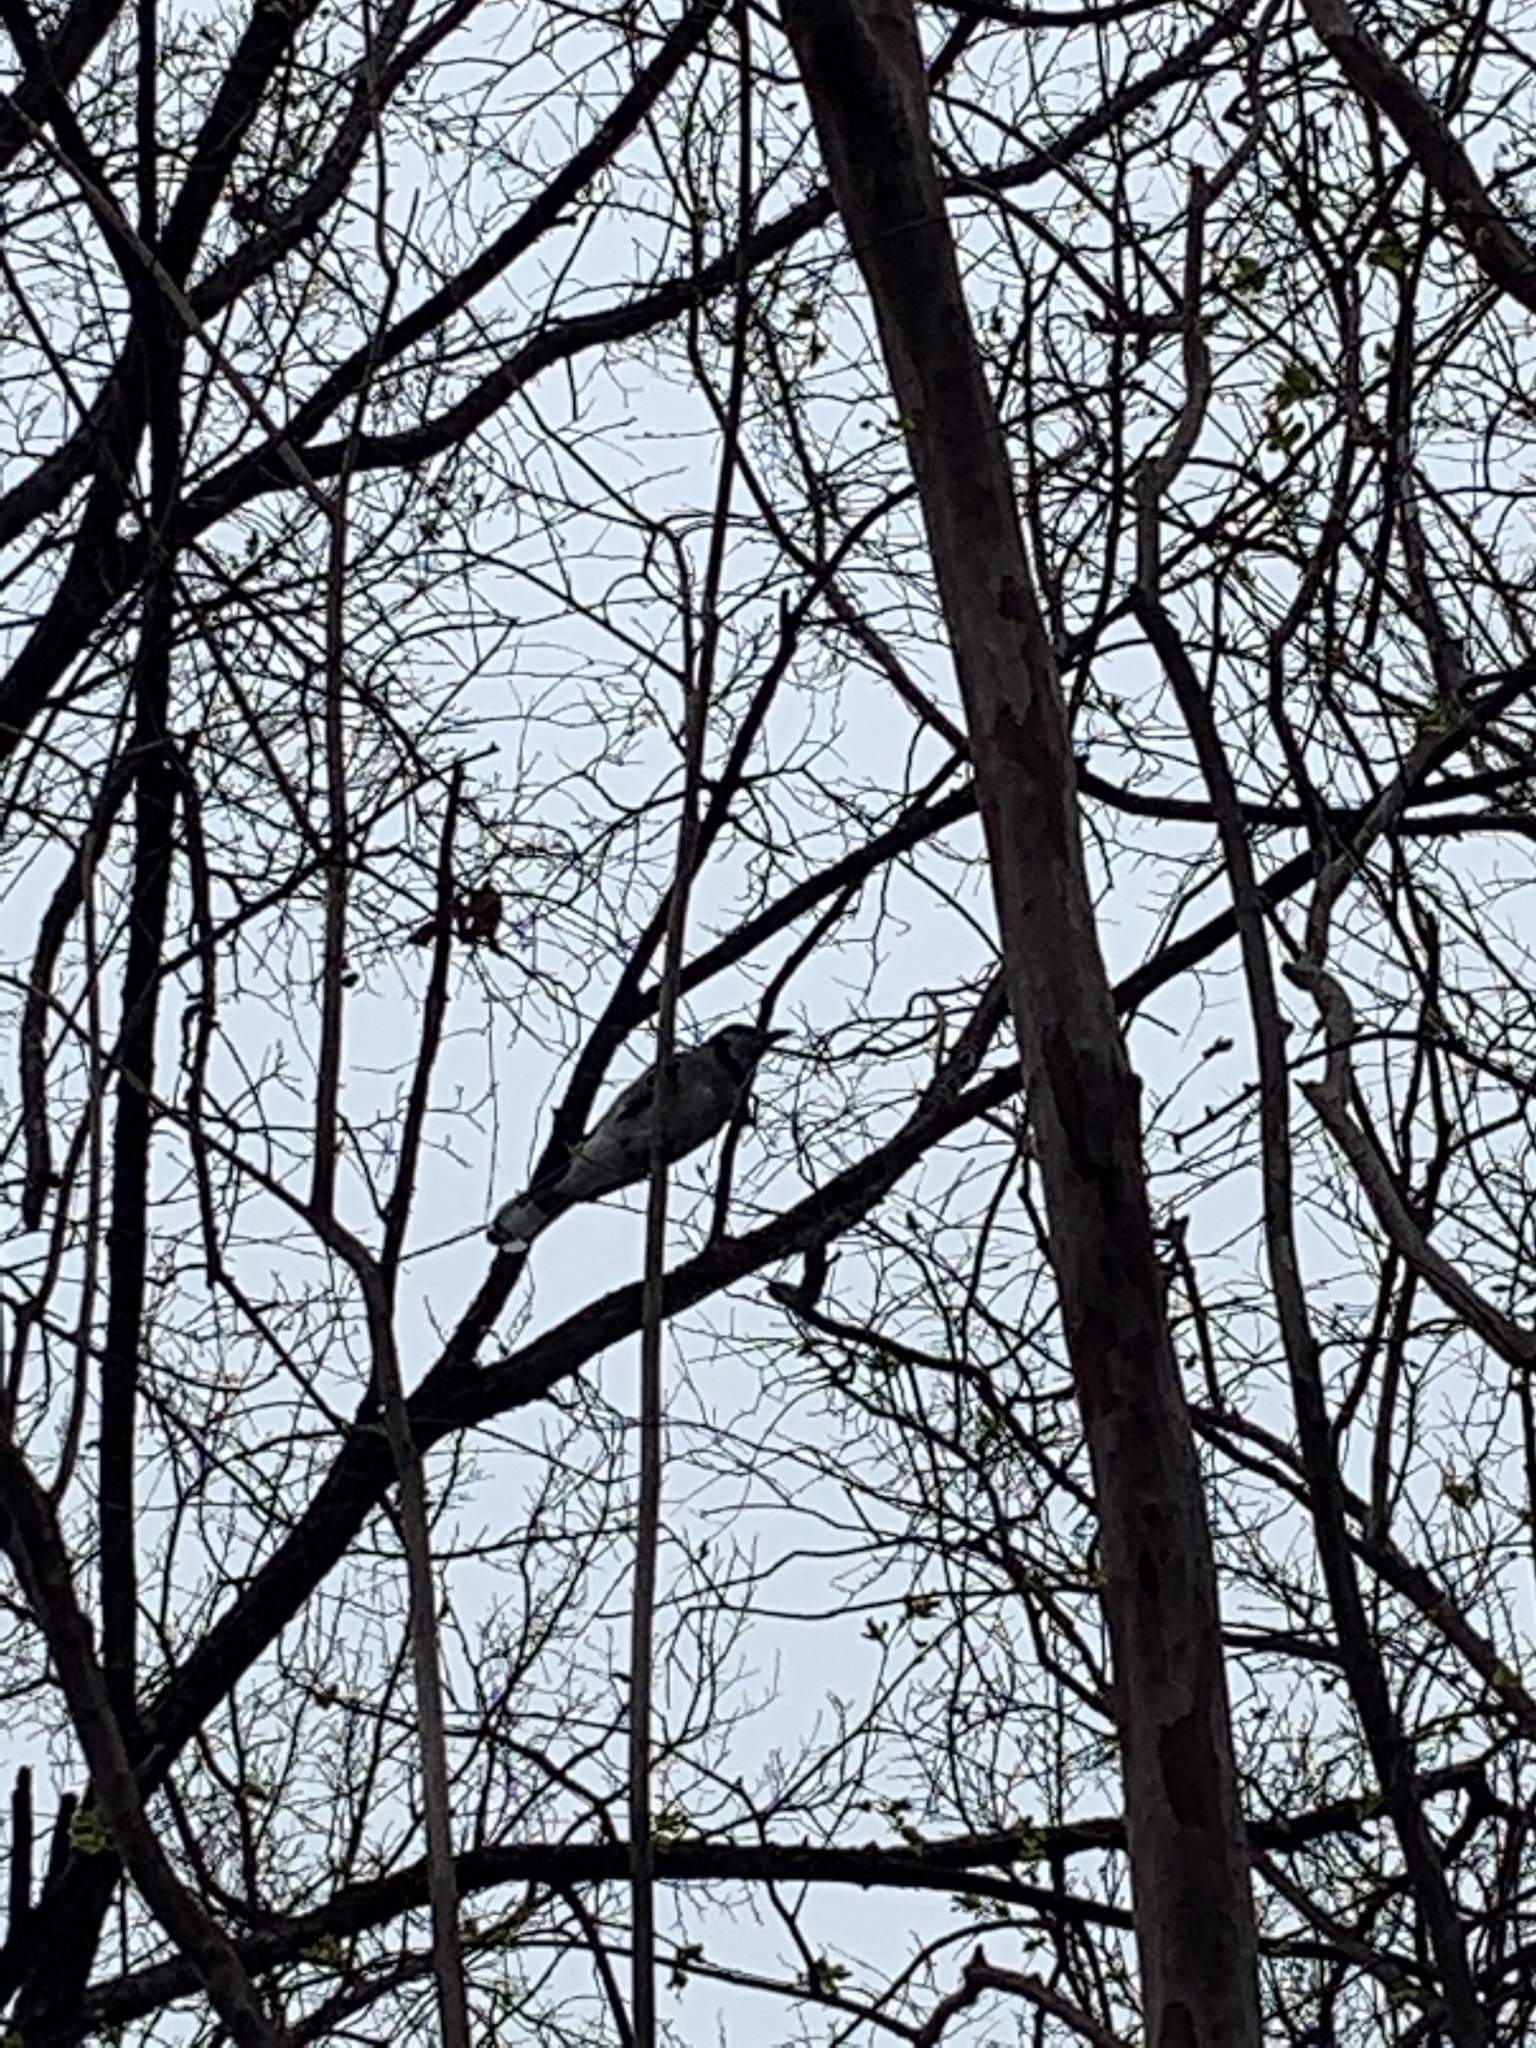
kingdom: Animalia
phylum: Chordata
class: Aves
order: Passeriformes
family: Corvidae
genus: Cyanocitta
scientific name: Cyanocitta cristata
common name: Blue jay
